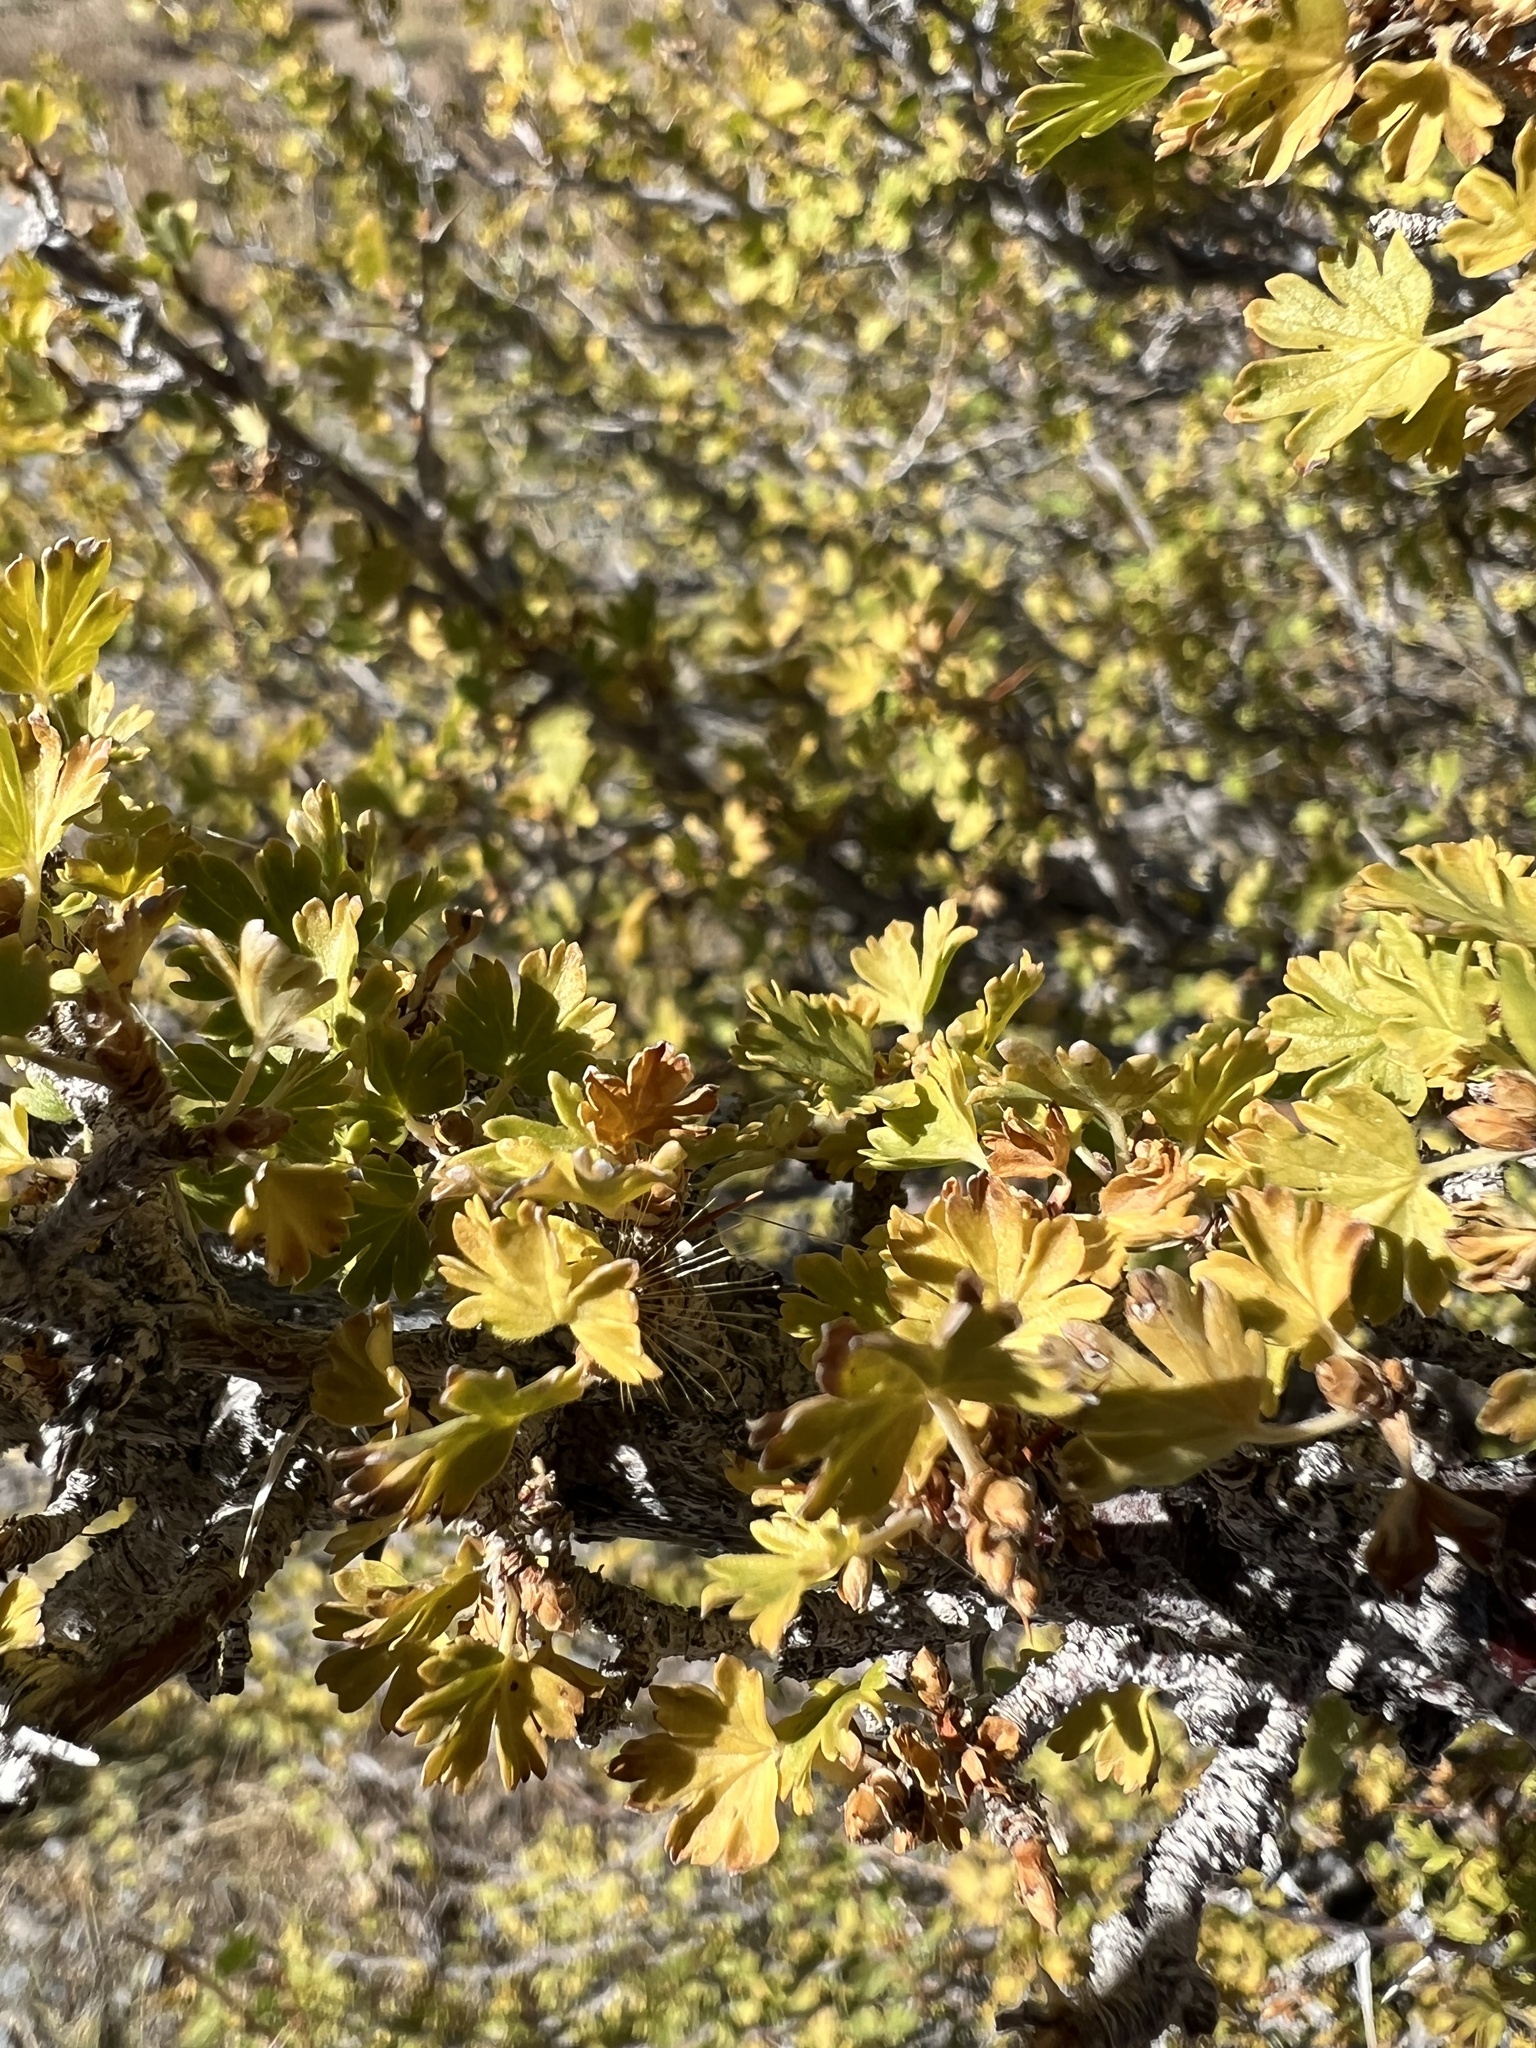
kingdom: Plantae
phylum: Tracheophyta
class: Magnoliopsida
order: Saxifragales
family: Grossulariaceae
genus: Ribes
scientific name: Ribes leptanthum
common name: Trumpet gooseberry
